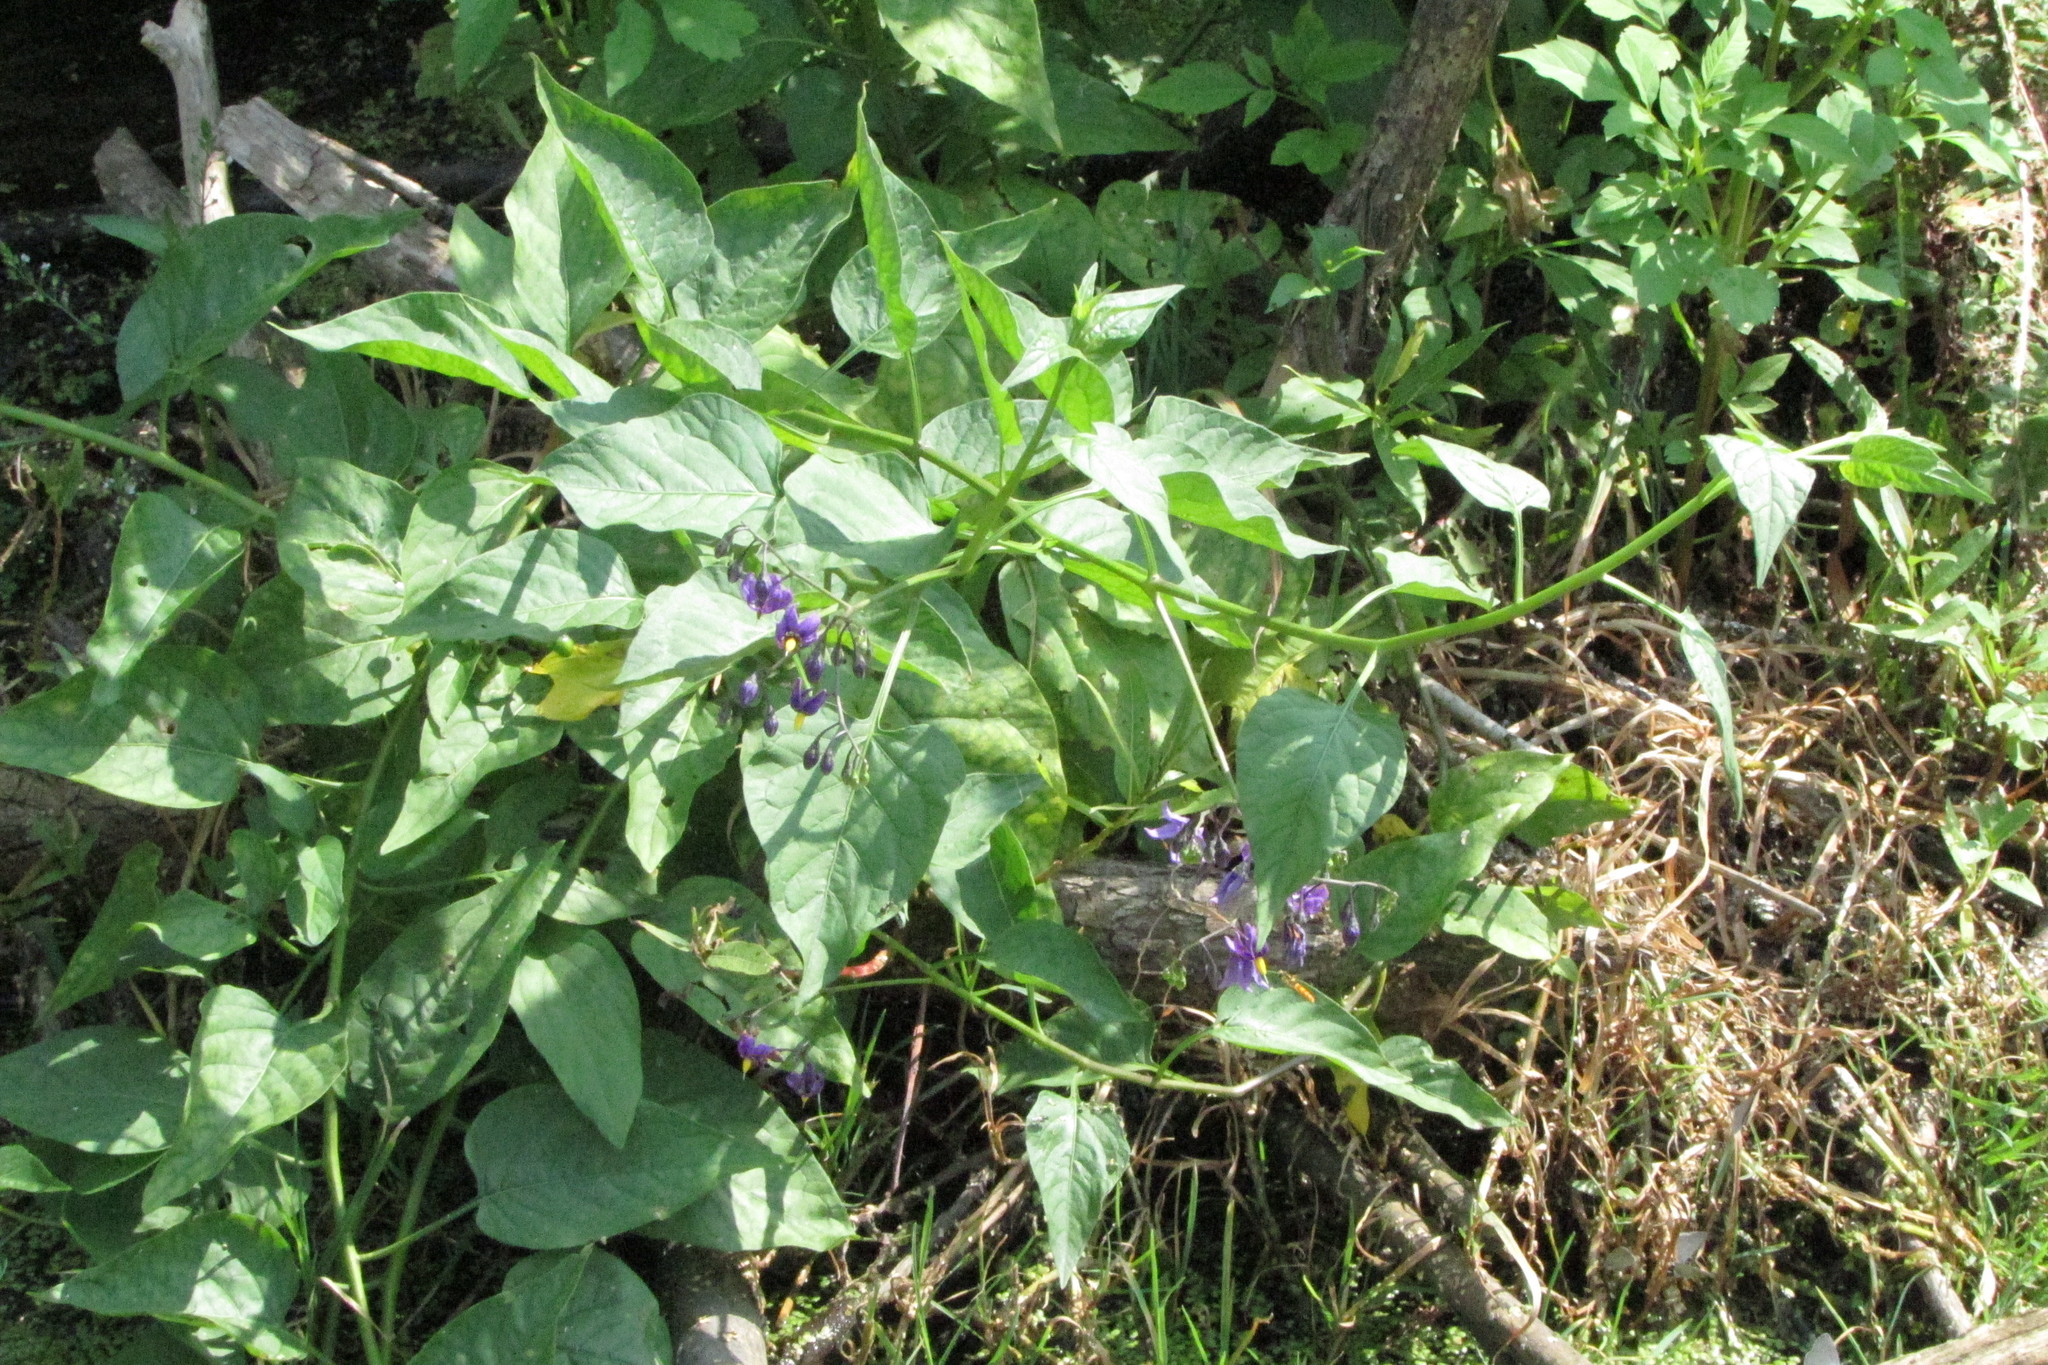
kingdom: Plantae
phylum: Tracheophyta
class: Magnoliopsida
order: Solanales
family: Solanaceae
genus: Solanum
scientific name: Solanum dulcamara
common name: Climbing nightshade
